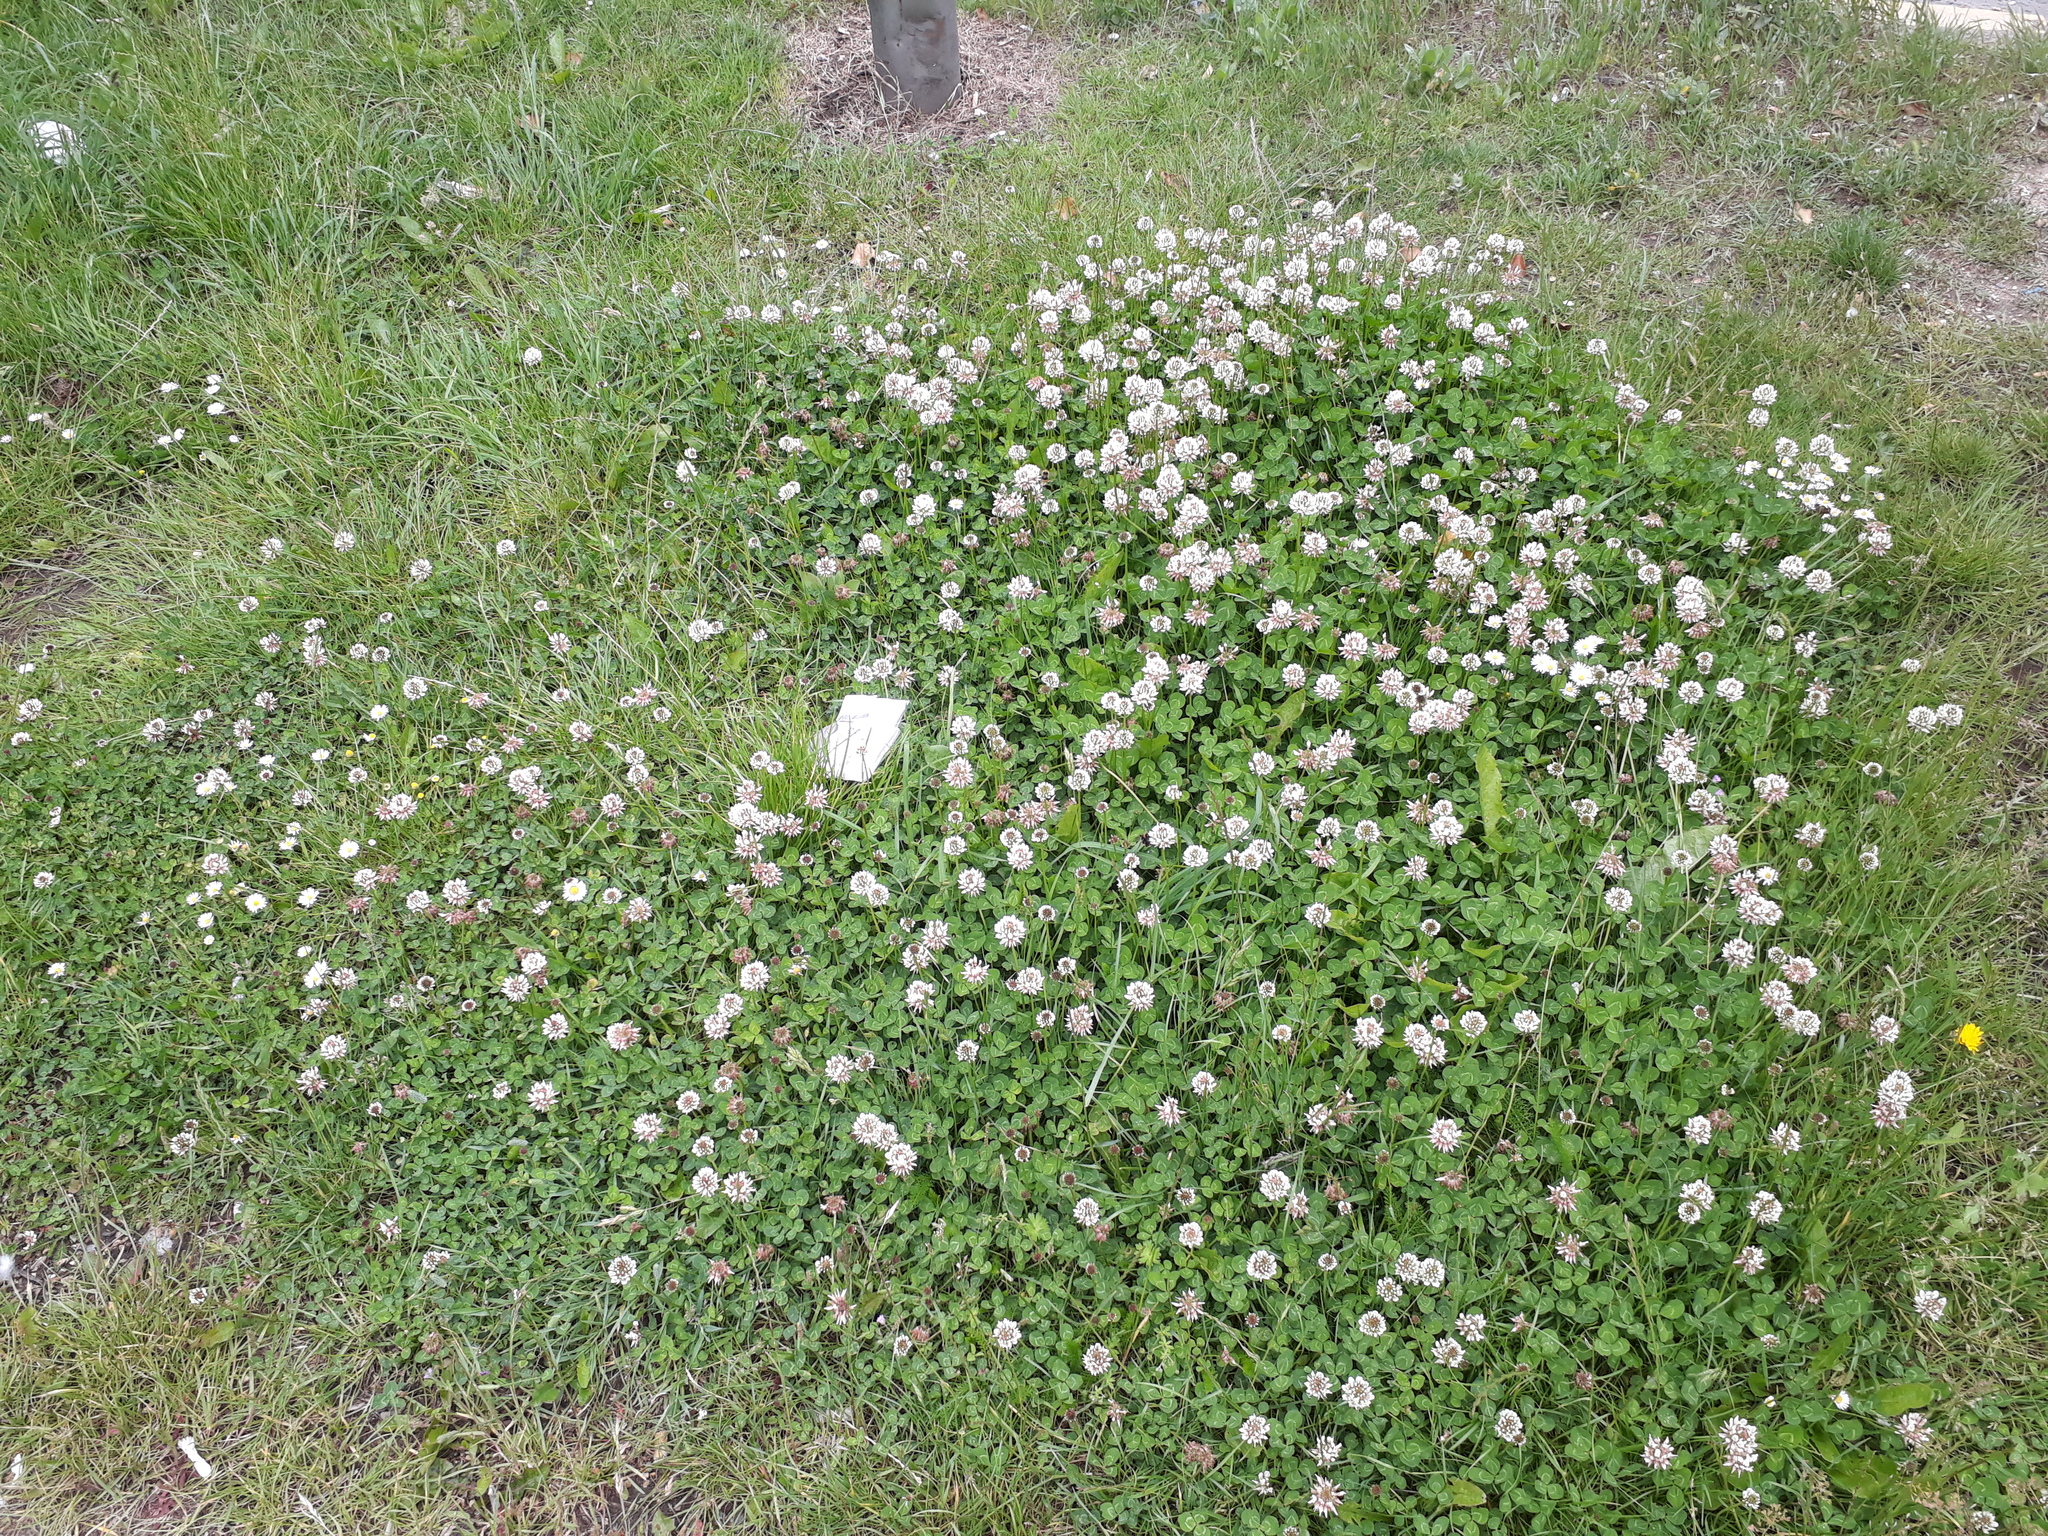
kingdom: Plantae
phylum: Tracheophyta
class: Magnoliopsida
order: Fabales
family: Fabaceae
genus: Trifolium
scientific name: Trifolium repens
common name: White clover
